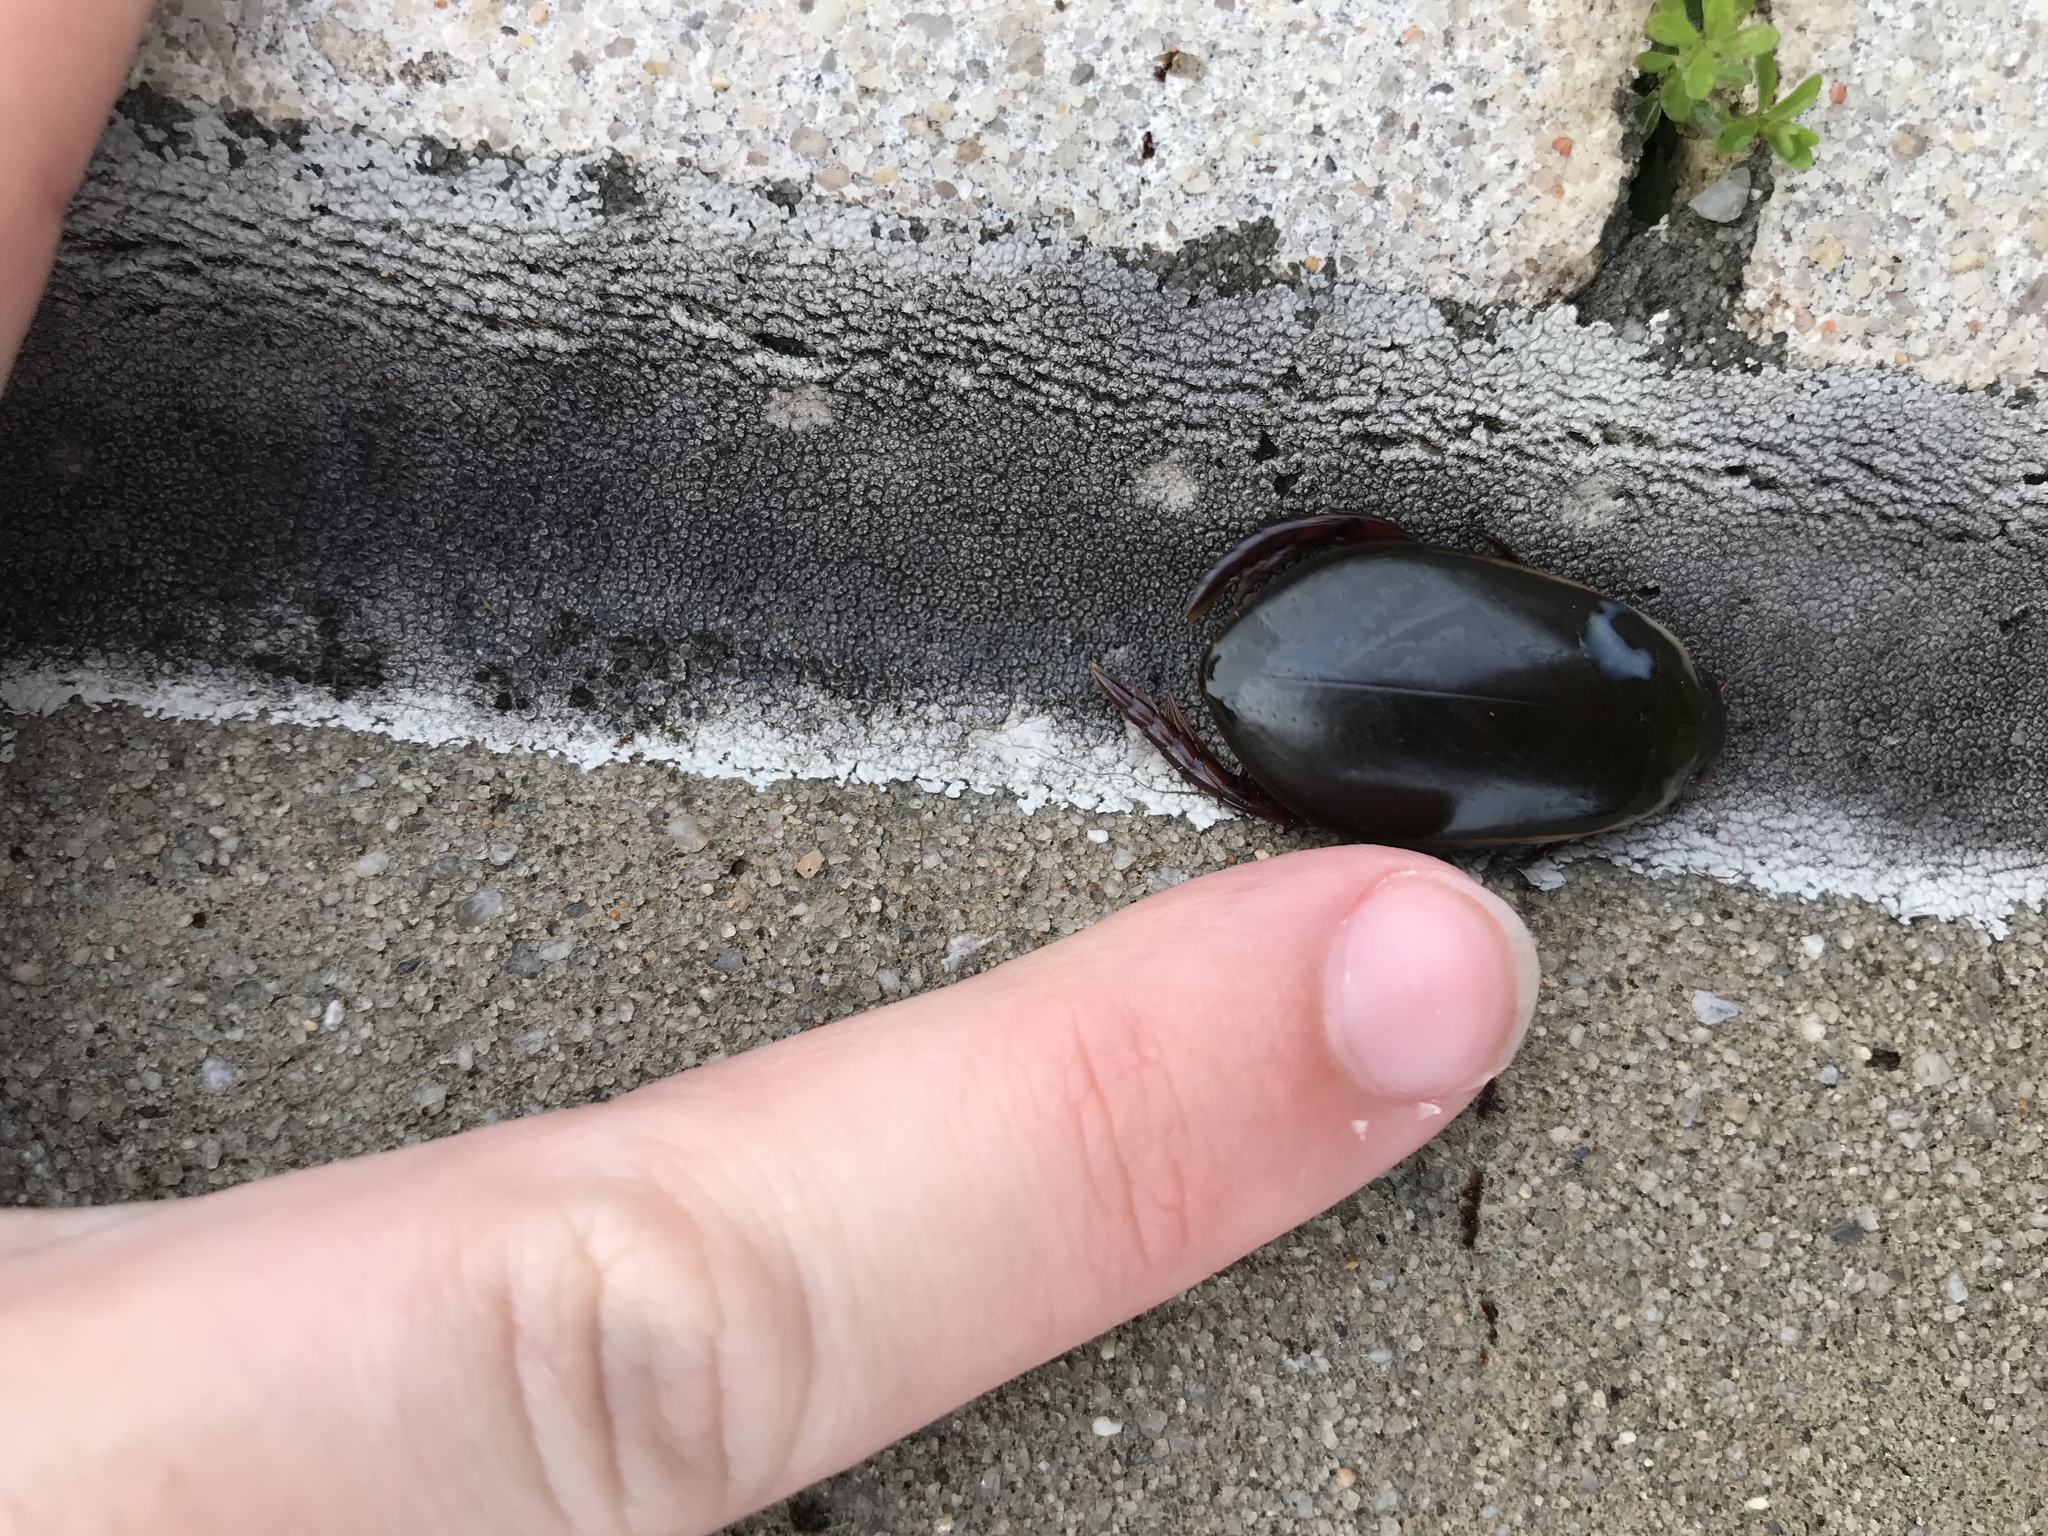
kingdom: Animalia
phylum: Arthropoda
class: Insecta
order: Coleoptera
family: Dytiscidae
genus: Cybister
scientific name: Cybister fimbriolatus
